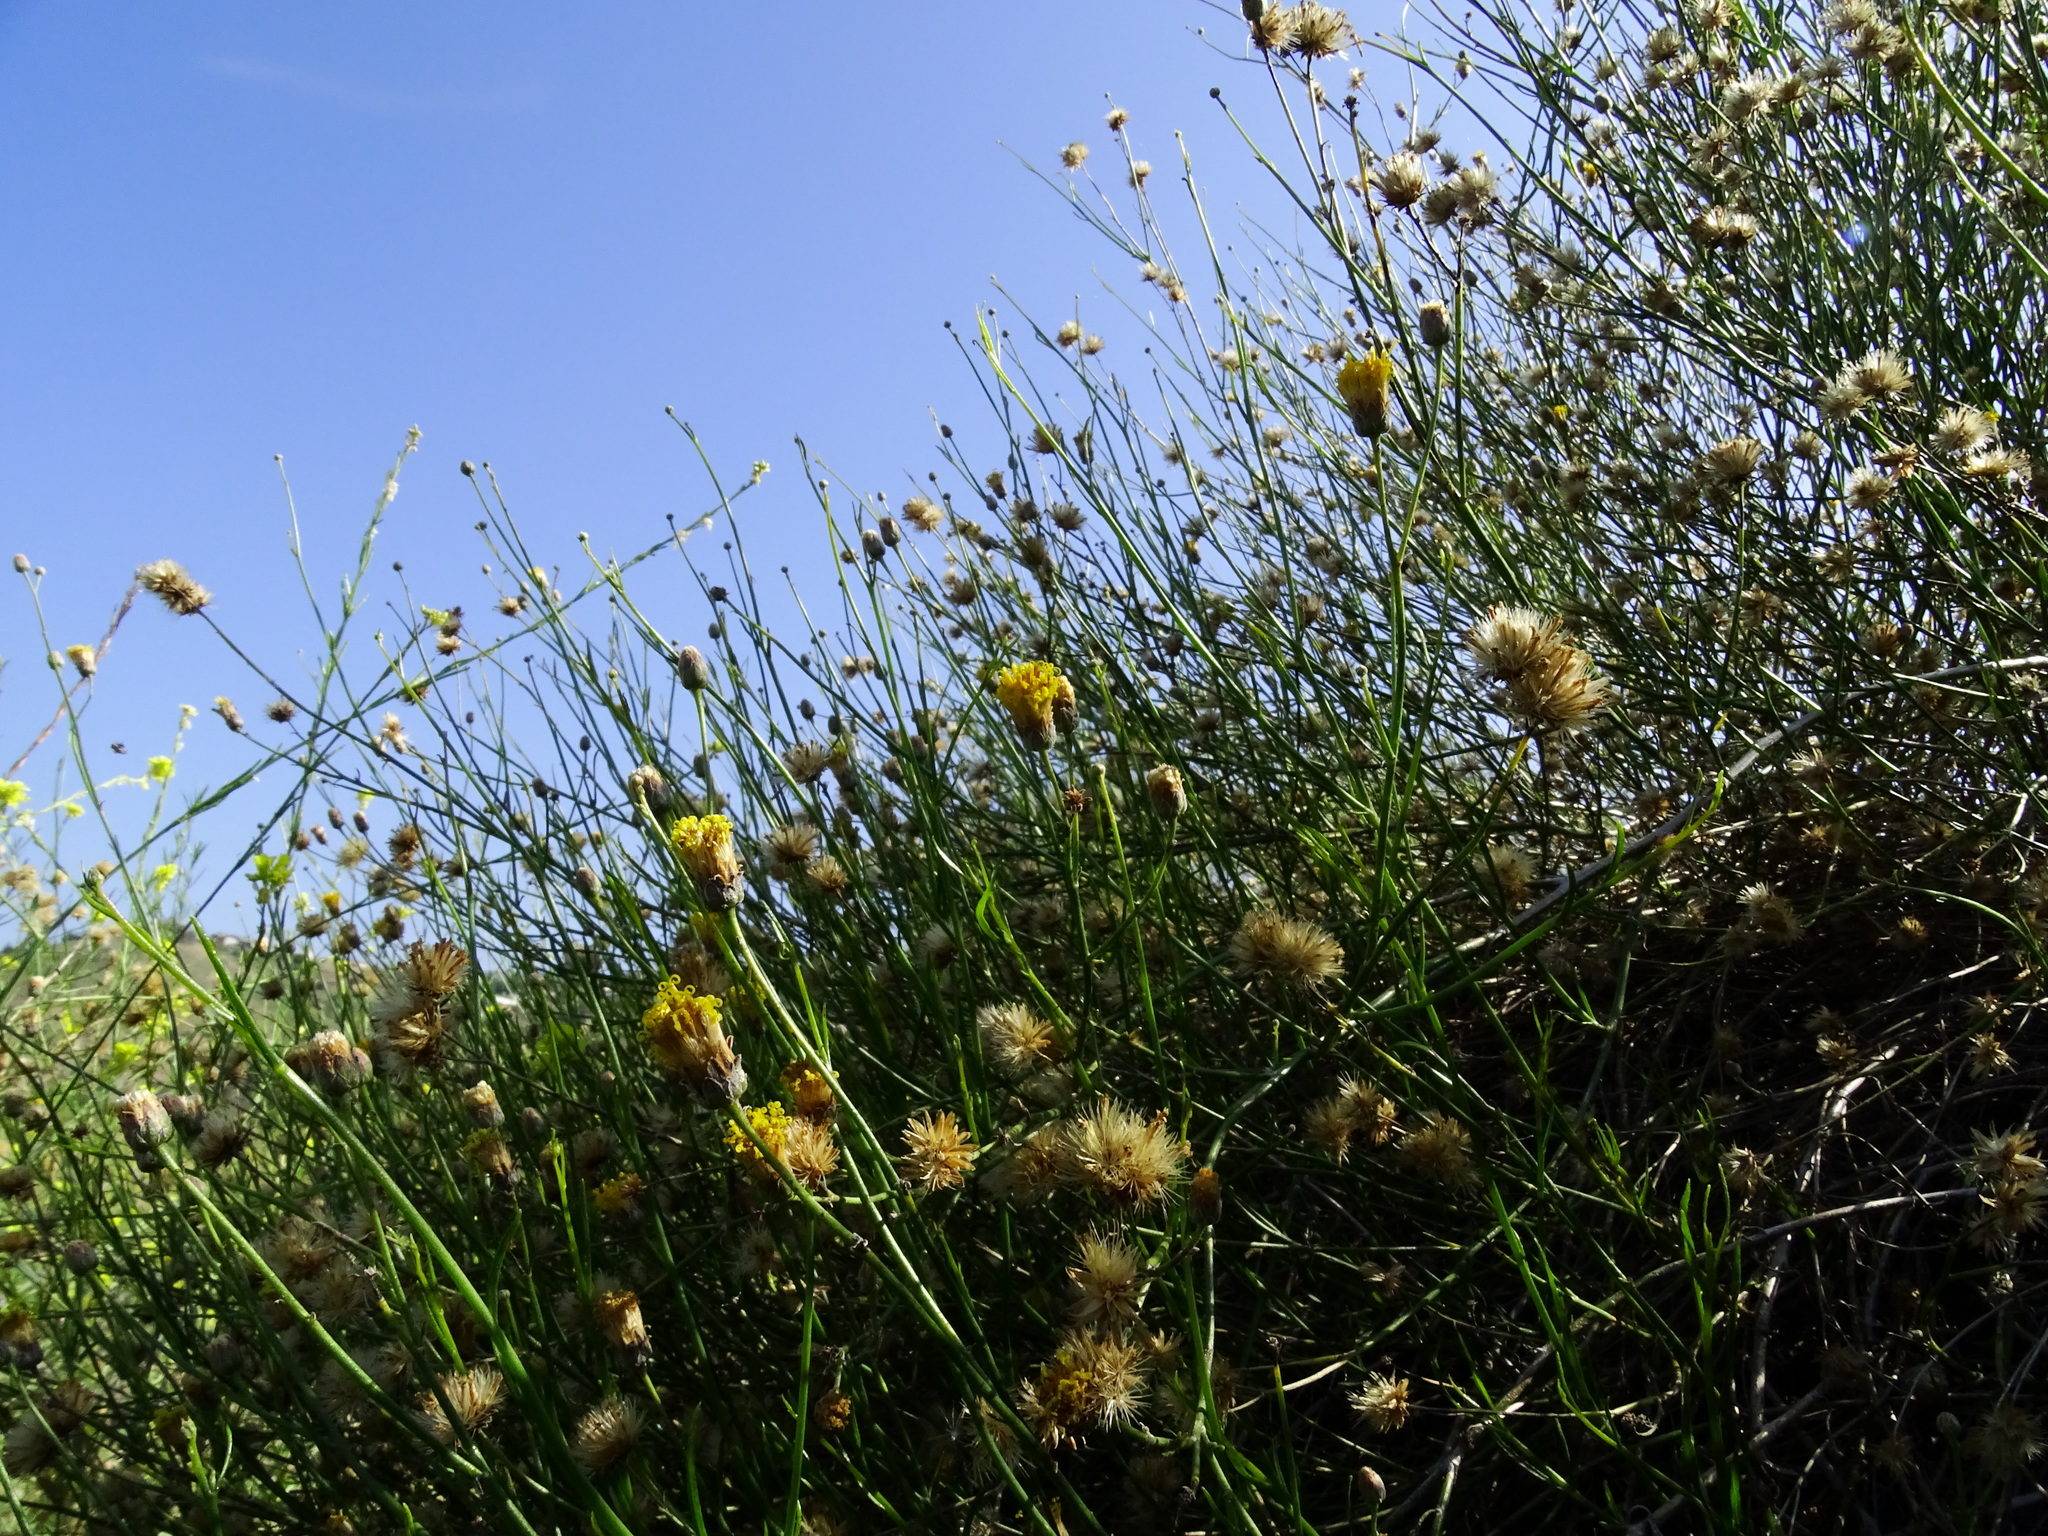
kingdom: Plantae
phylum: Tracheophyta
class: Magnoliopsida
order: Asterales
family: Asteraceae
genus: Lepidospartum
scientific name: Lepidospartum squamatum
